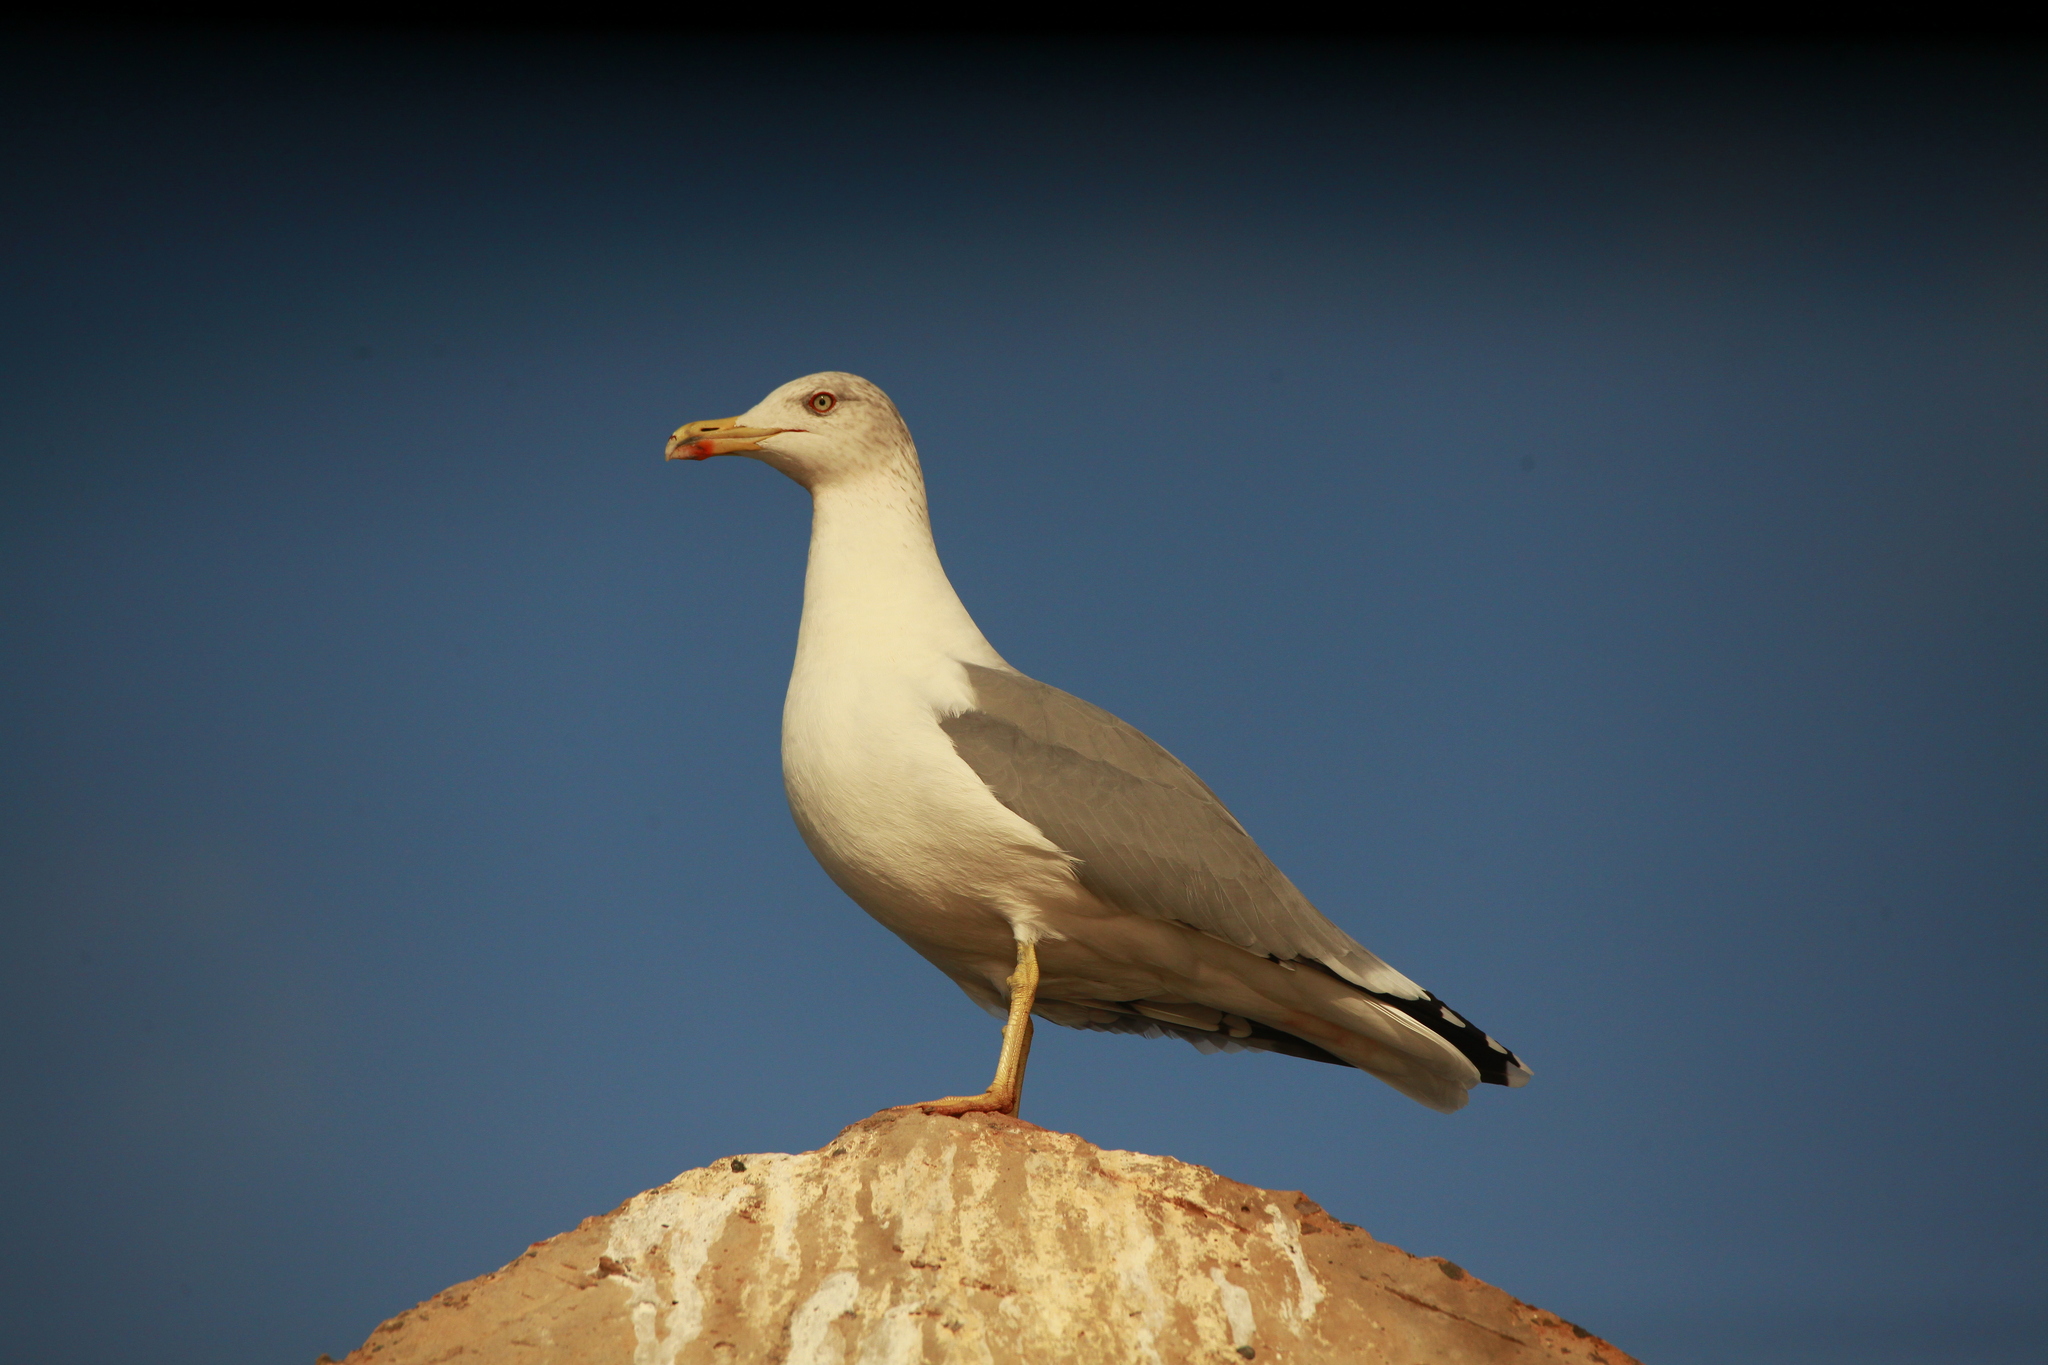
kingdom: Animalia
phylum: Chordata
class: Aves
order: Charadriiformes
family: Laridae
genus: Larus
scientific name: Larus michahellis
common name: Yellow-legged gull
